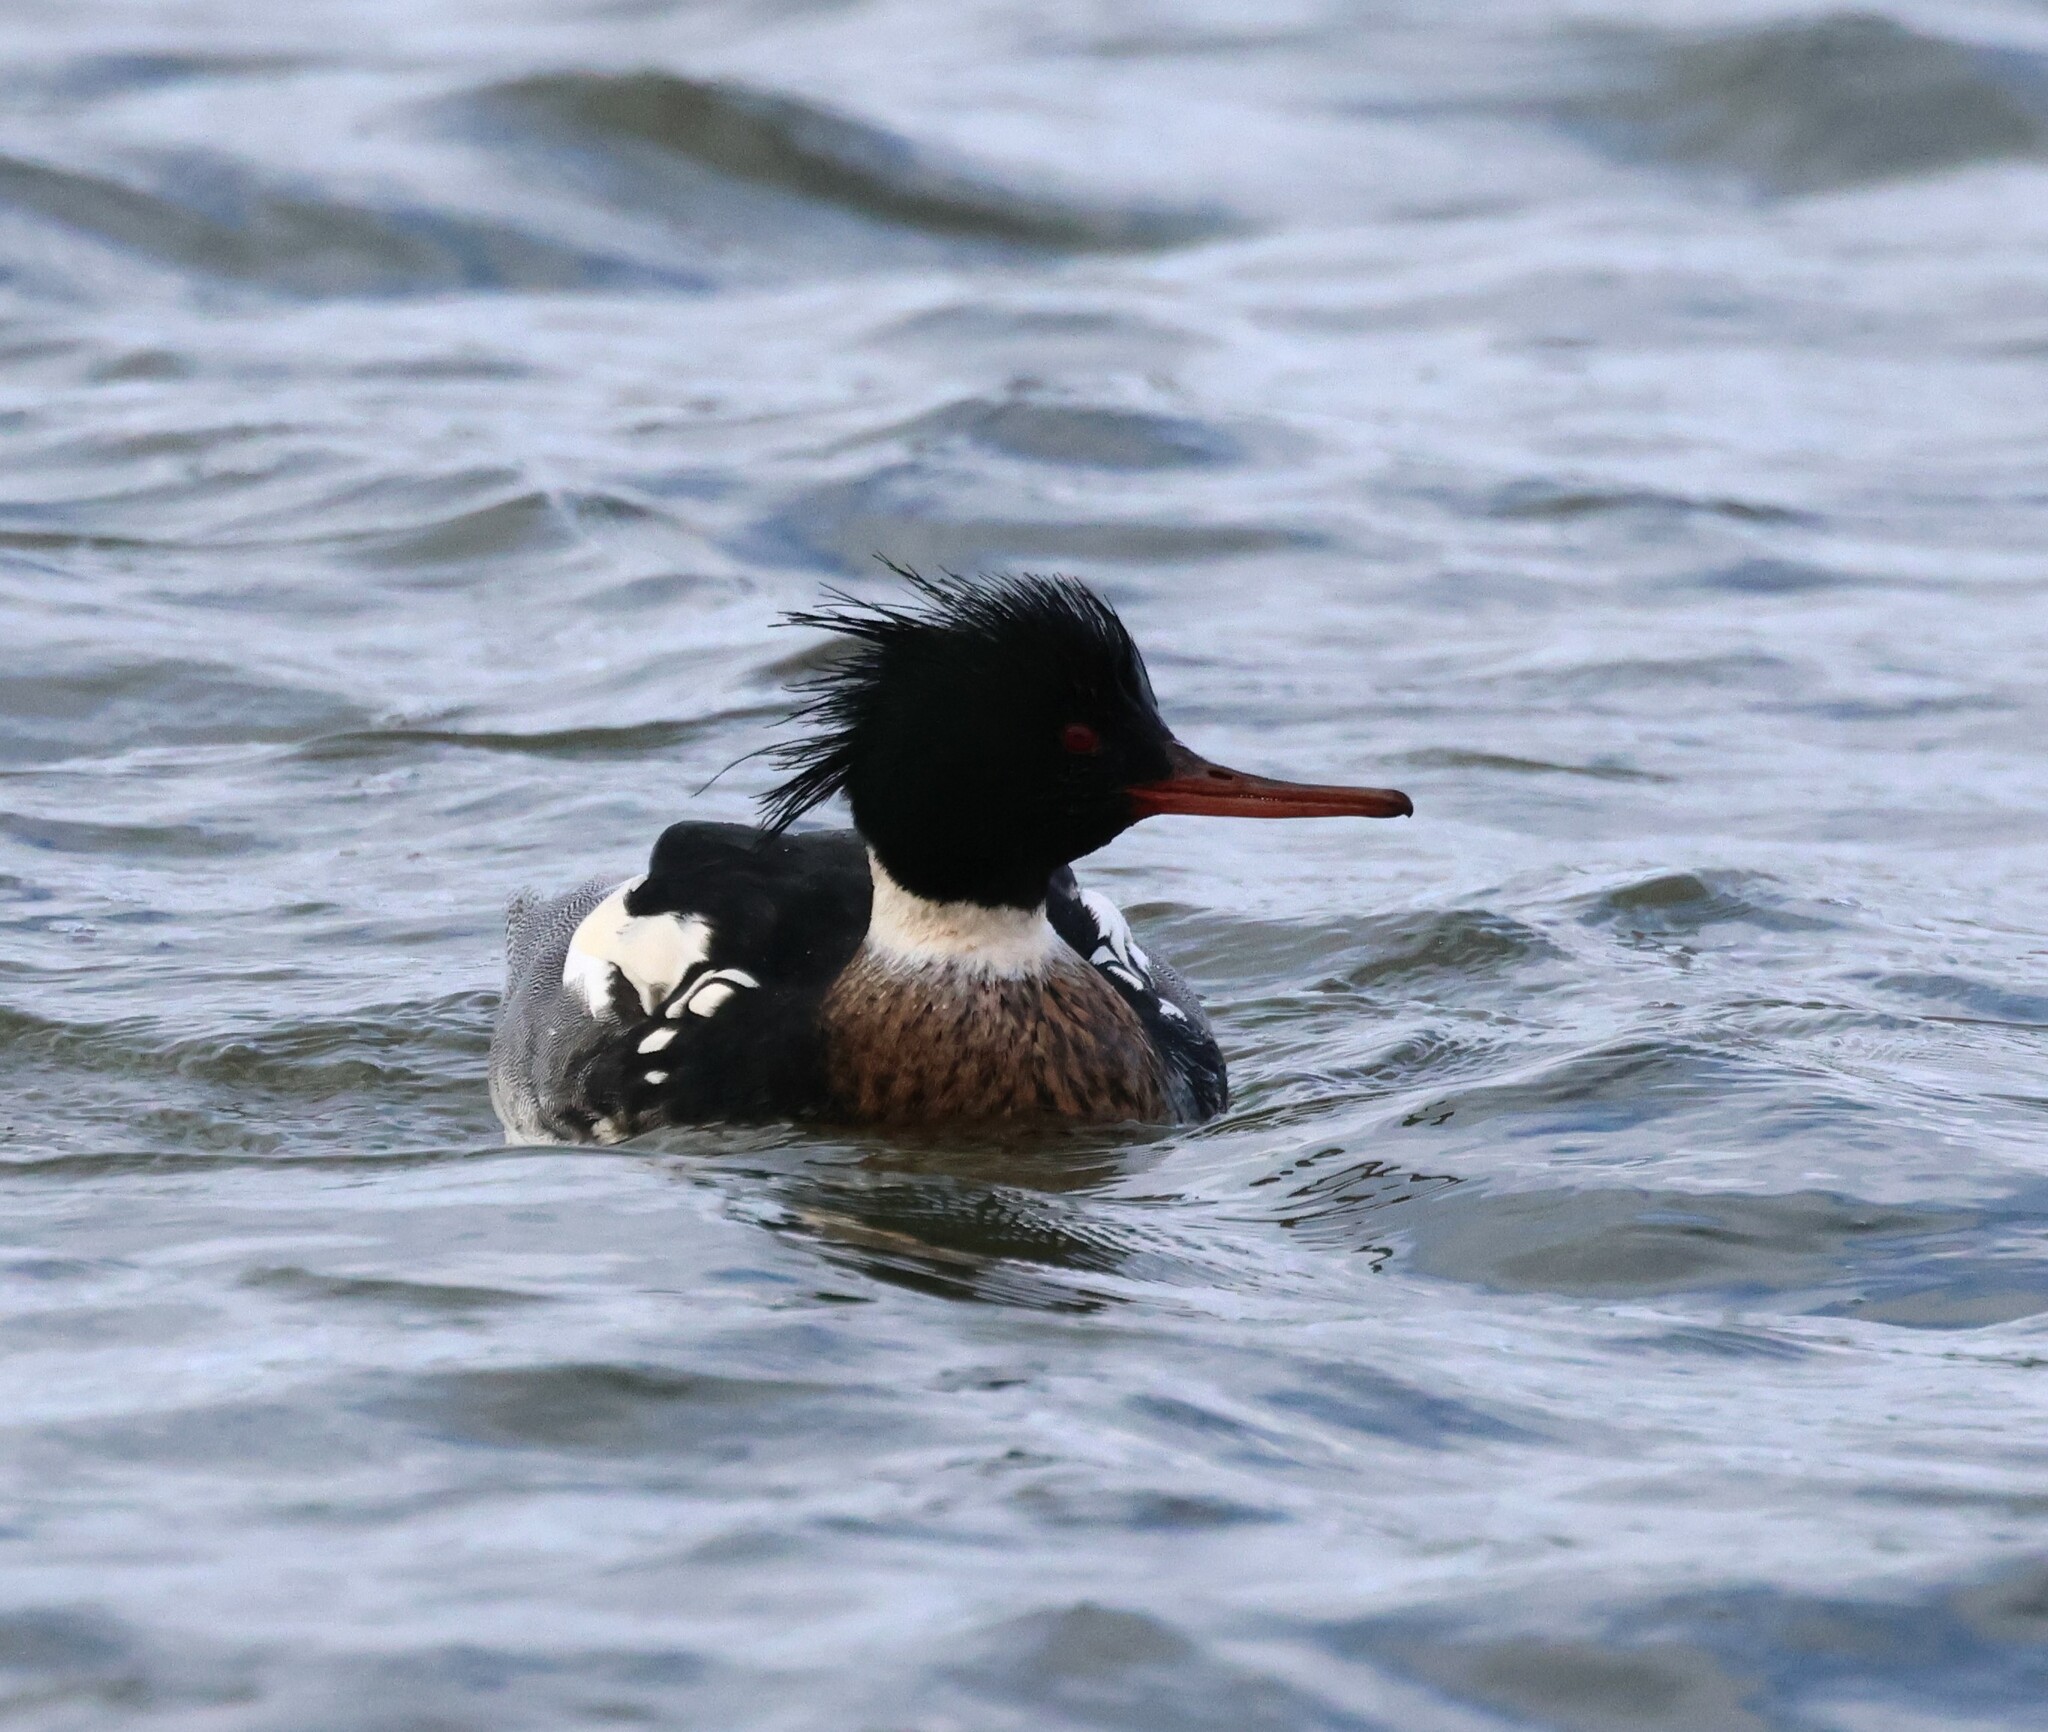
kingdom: Animalia
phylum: Chordata
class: Aves
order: Anseriformes
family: Anatidae
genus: Mergus
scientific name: Mergus serrator
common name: Red-breasted merganser
